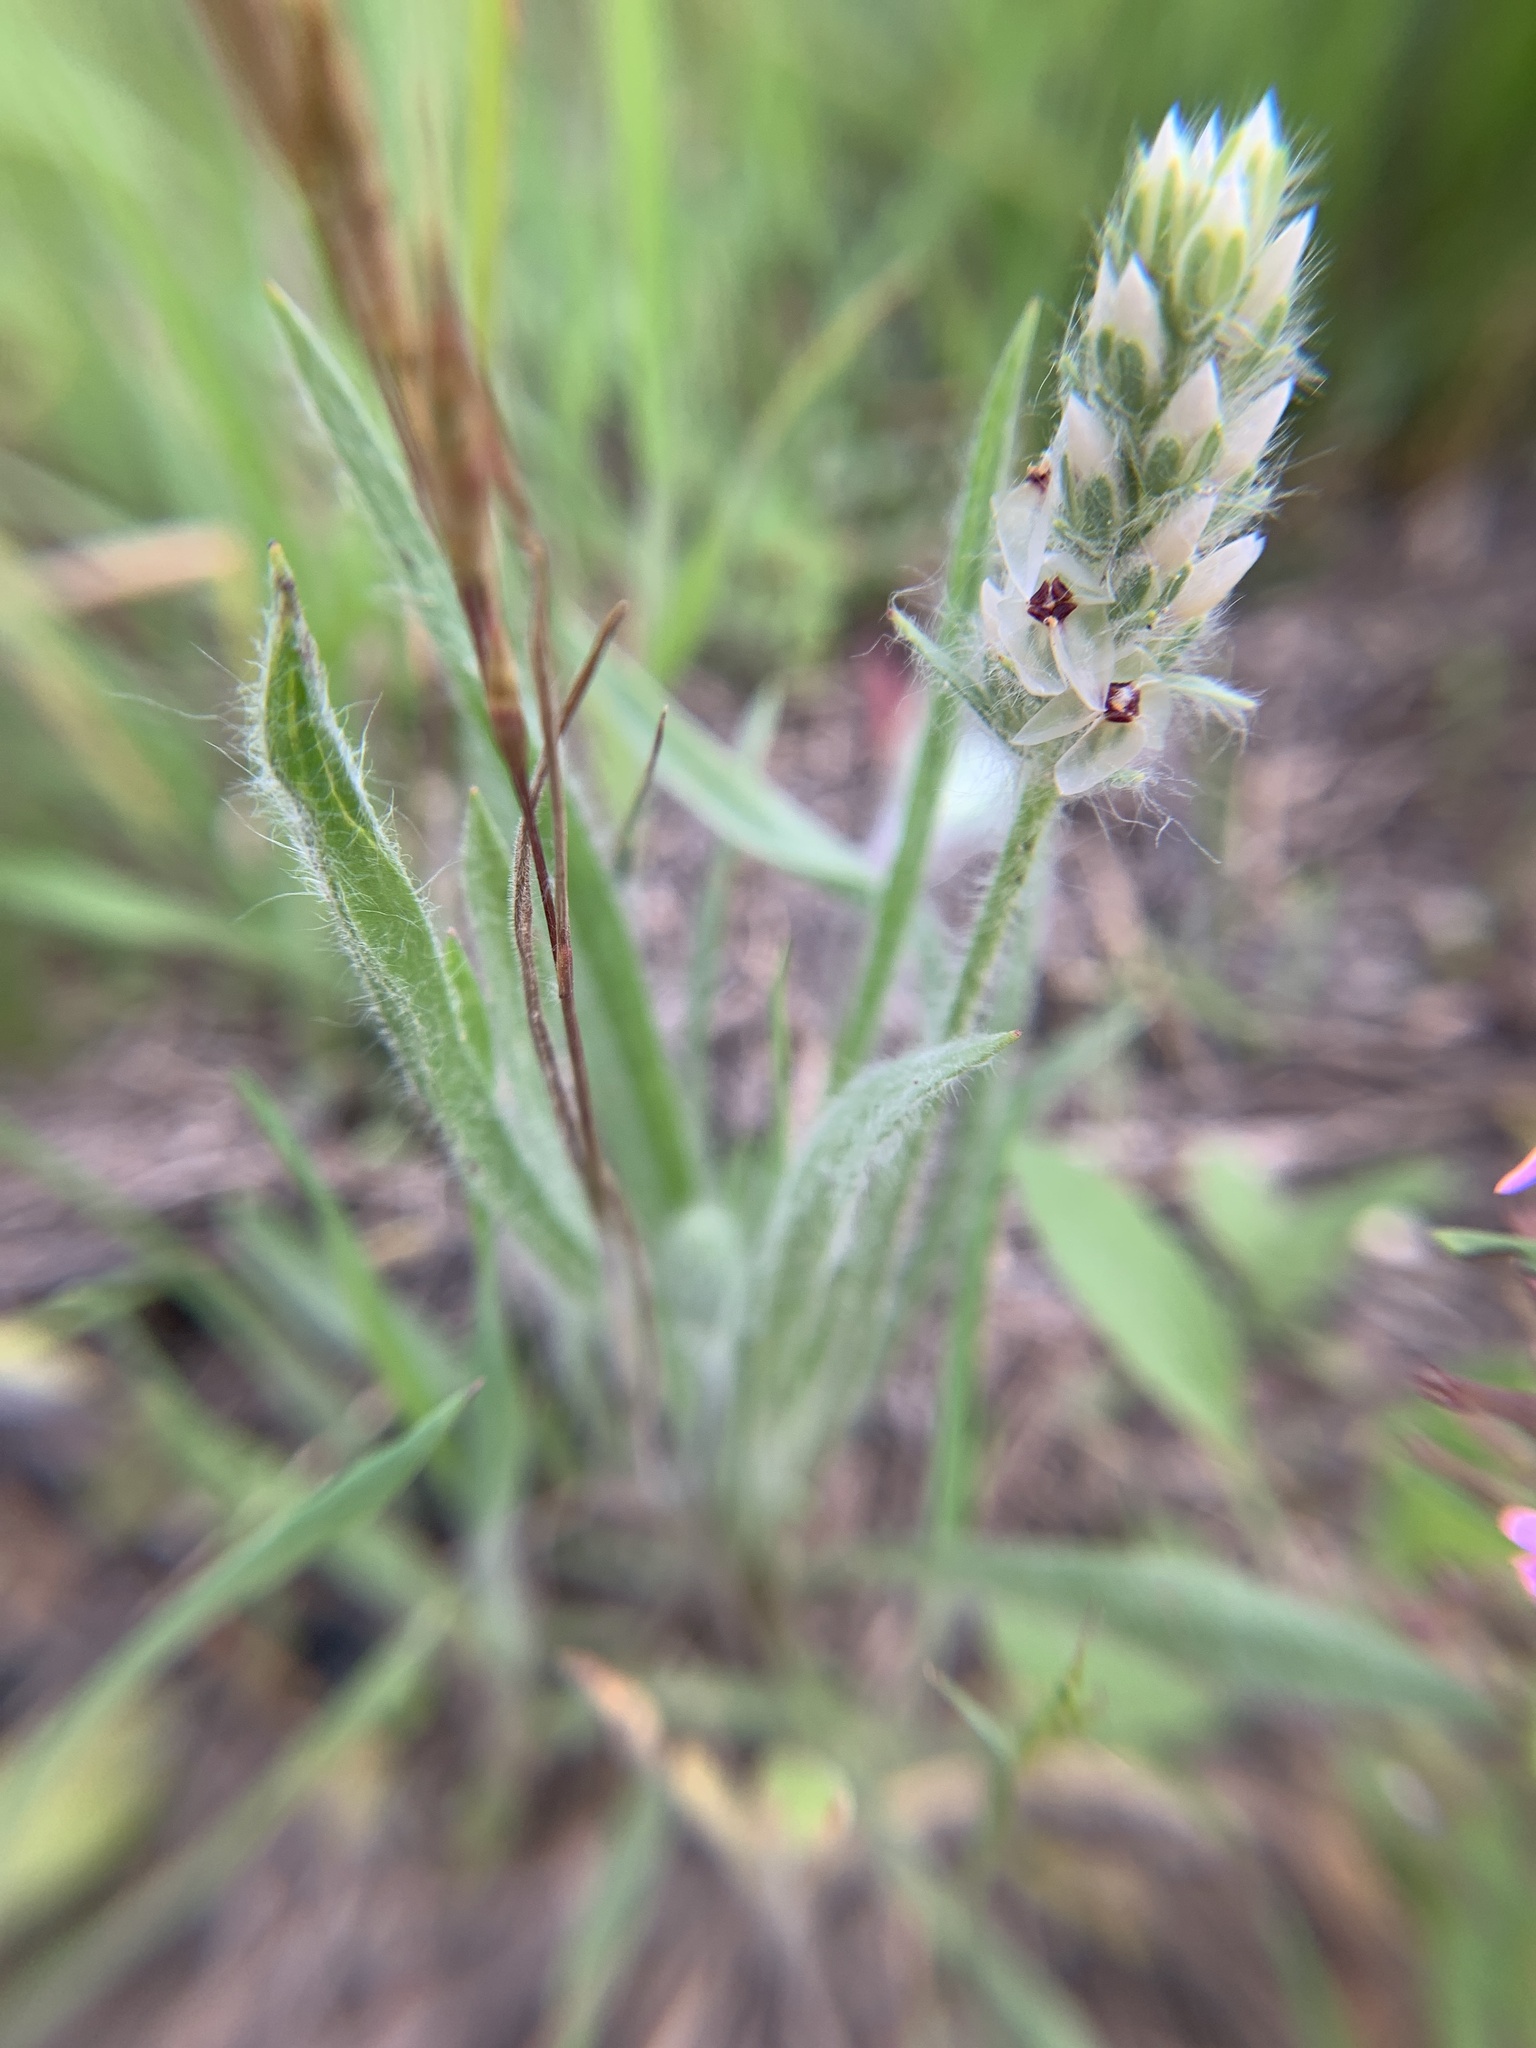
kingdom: Plantae
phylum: Tracheophyta
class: Magnoliopsida
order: Lamiales
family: Plantaginaceae
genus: Plantago
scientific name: Plantago helleri
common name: Heller's plantain
